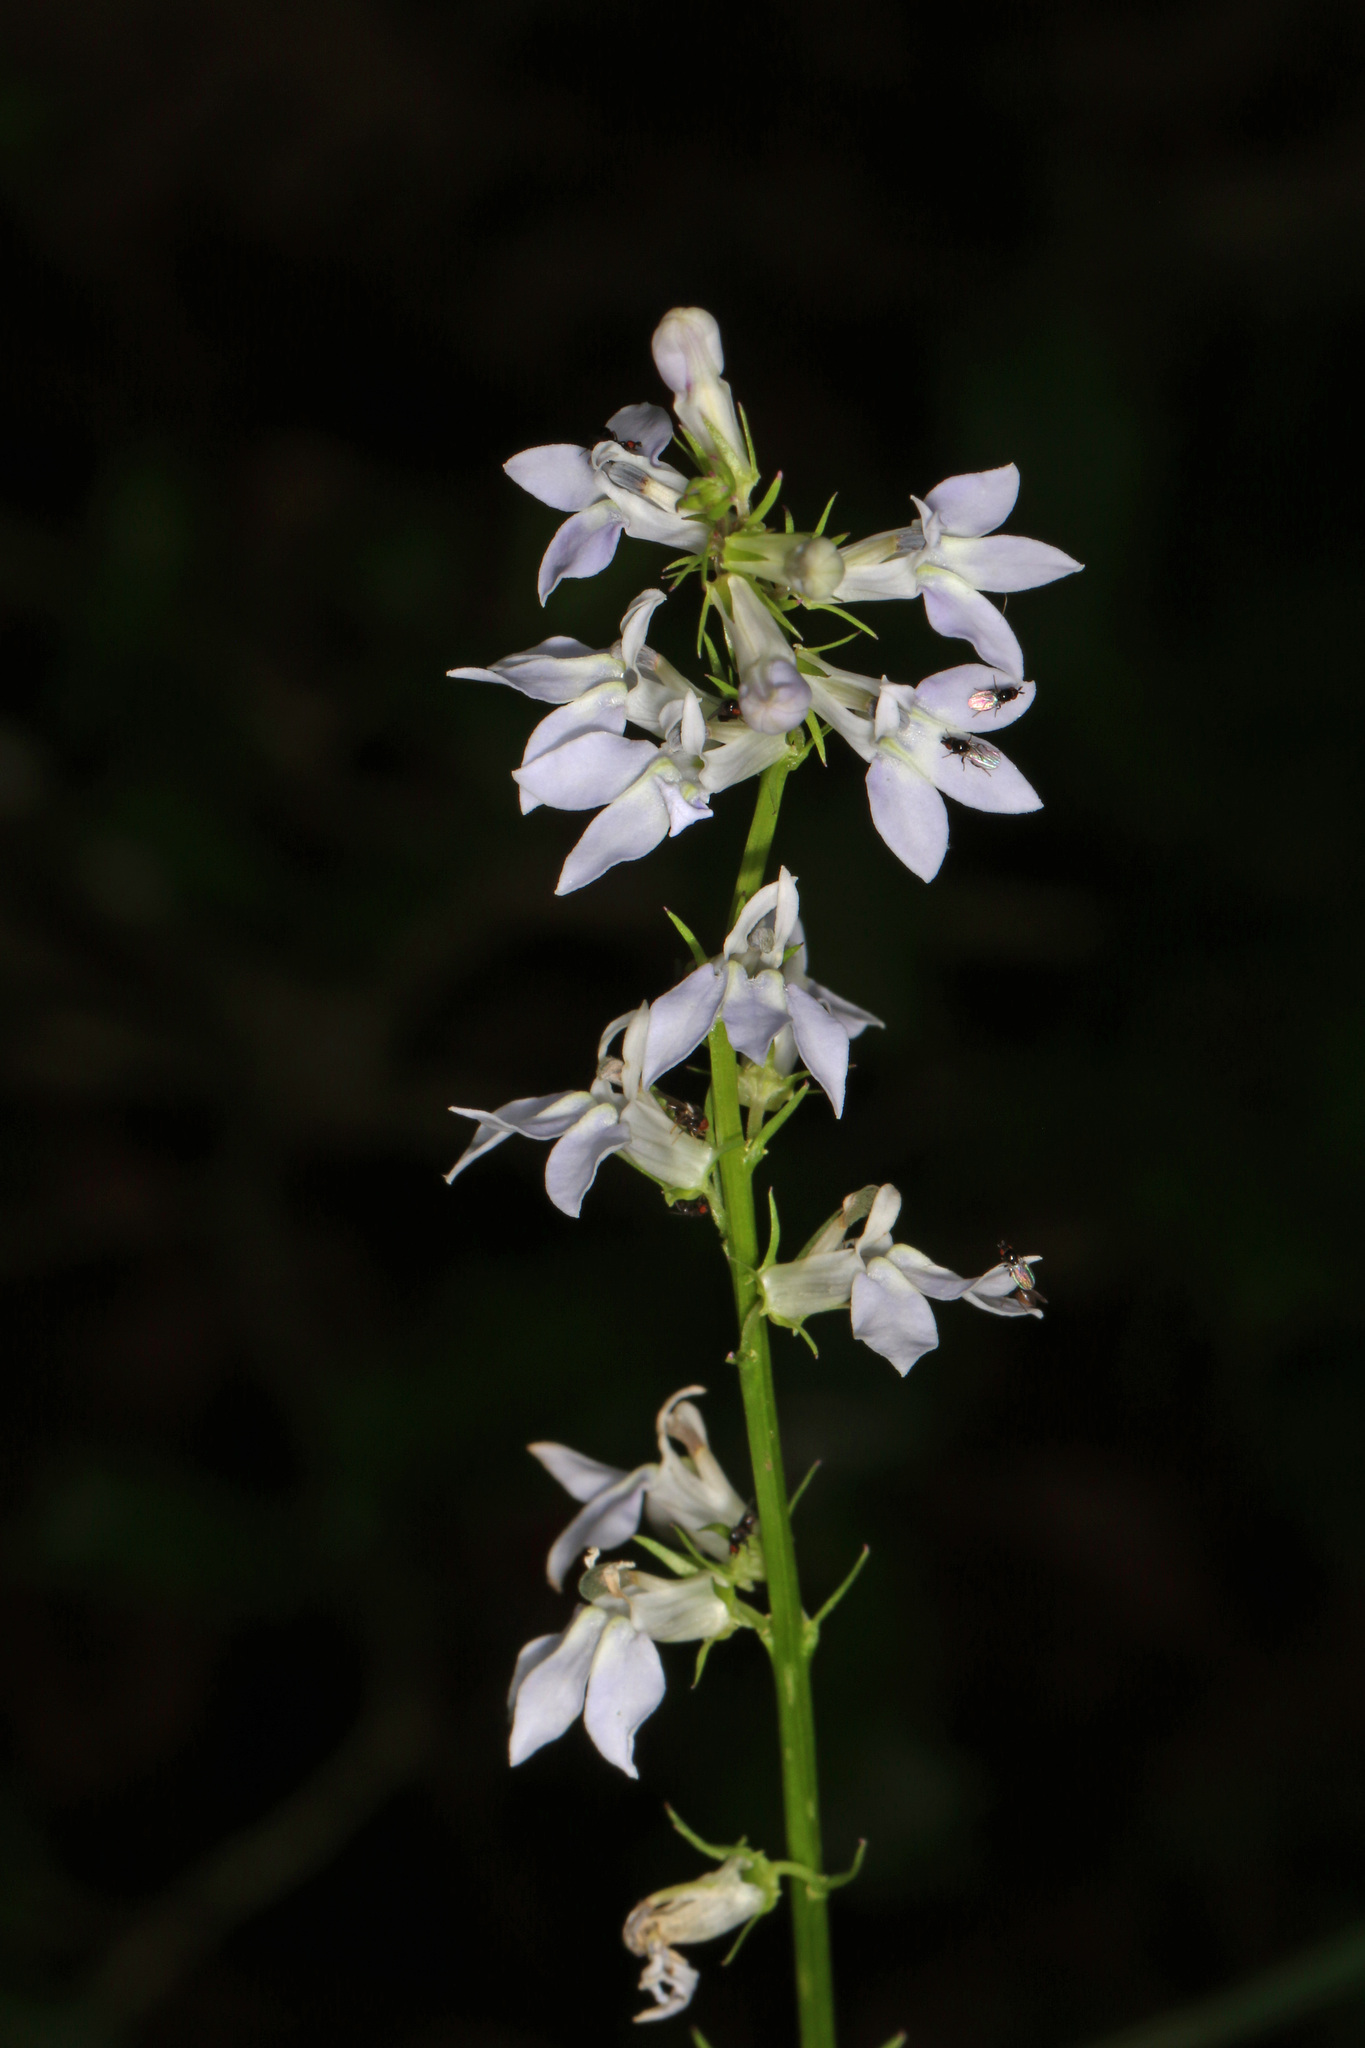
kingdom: Plantae
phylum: Tracheophyta
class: Magnoliopsida
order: Asterales
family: Campanulaceae
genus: Lobelia
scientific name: Lobelia spicata
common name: Pale-spike lobelia
